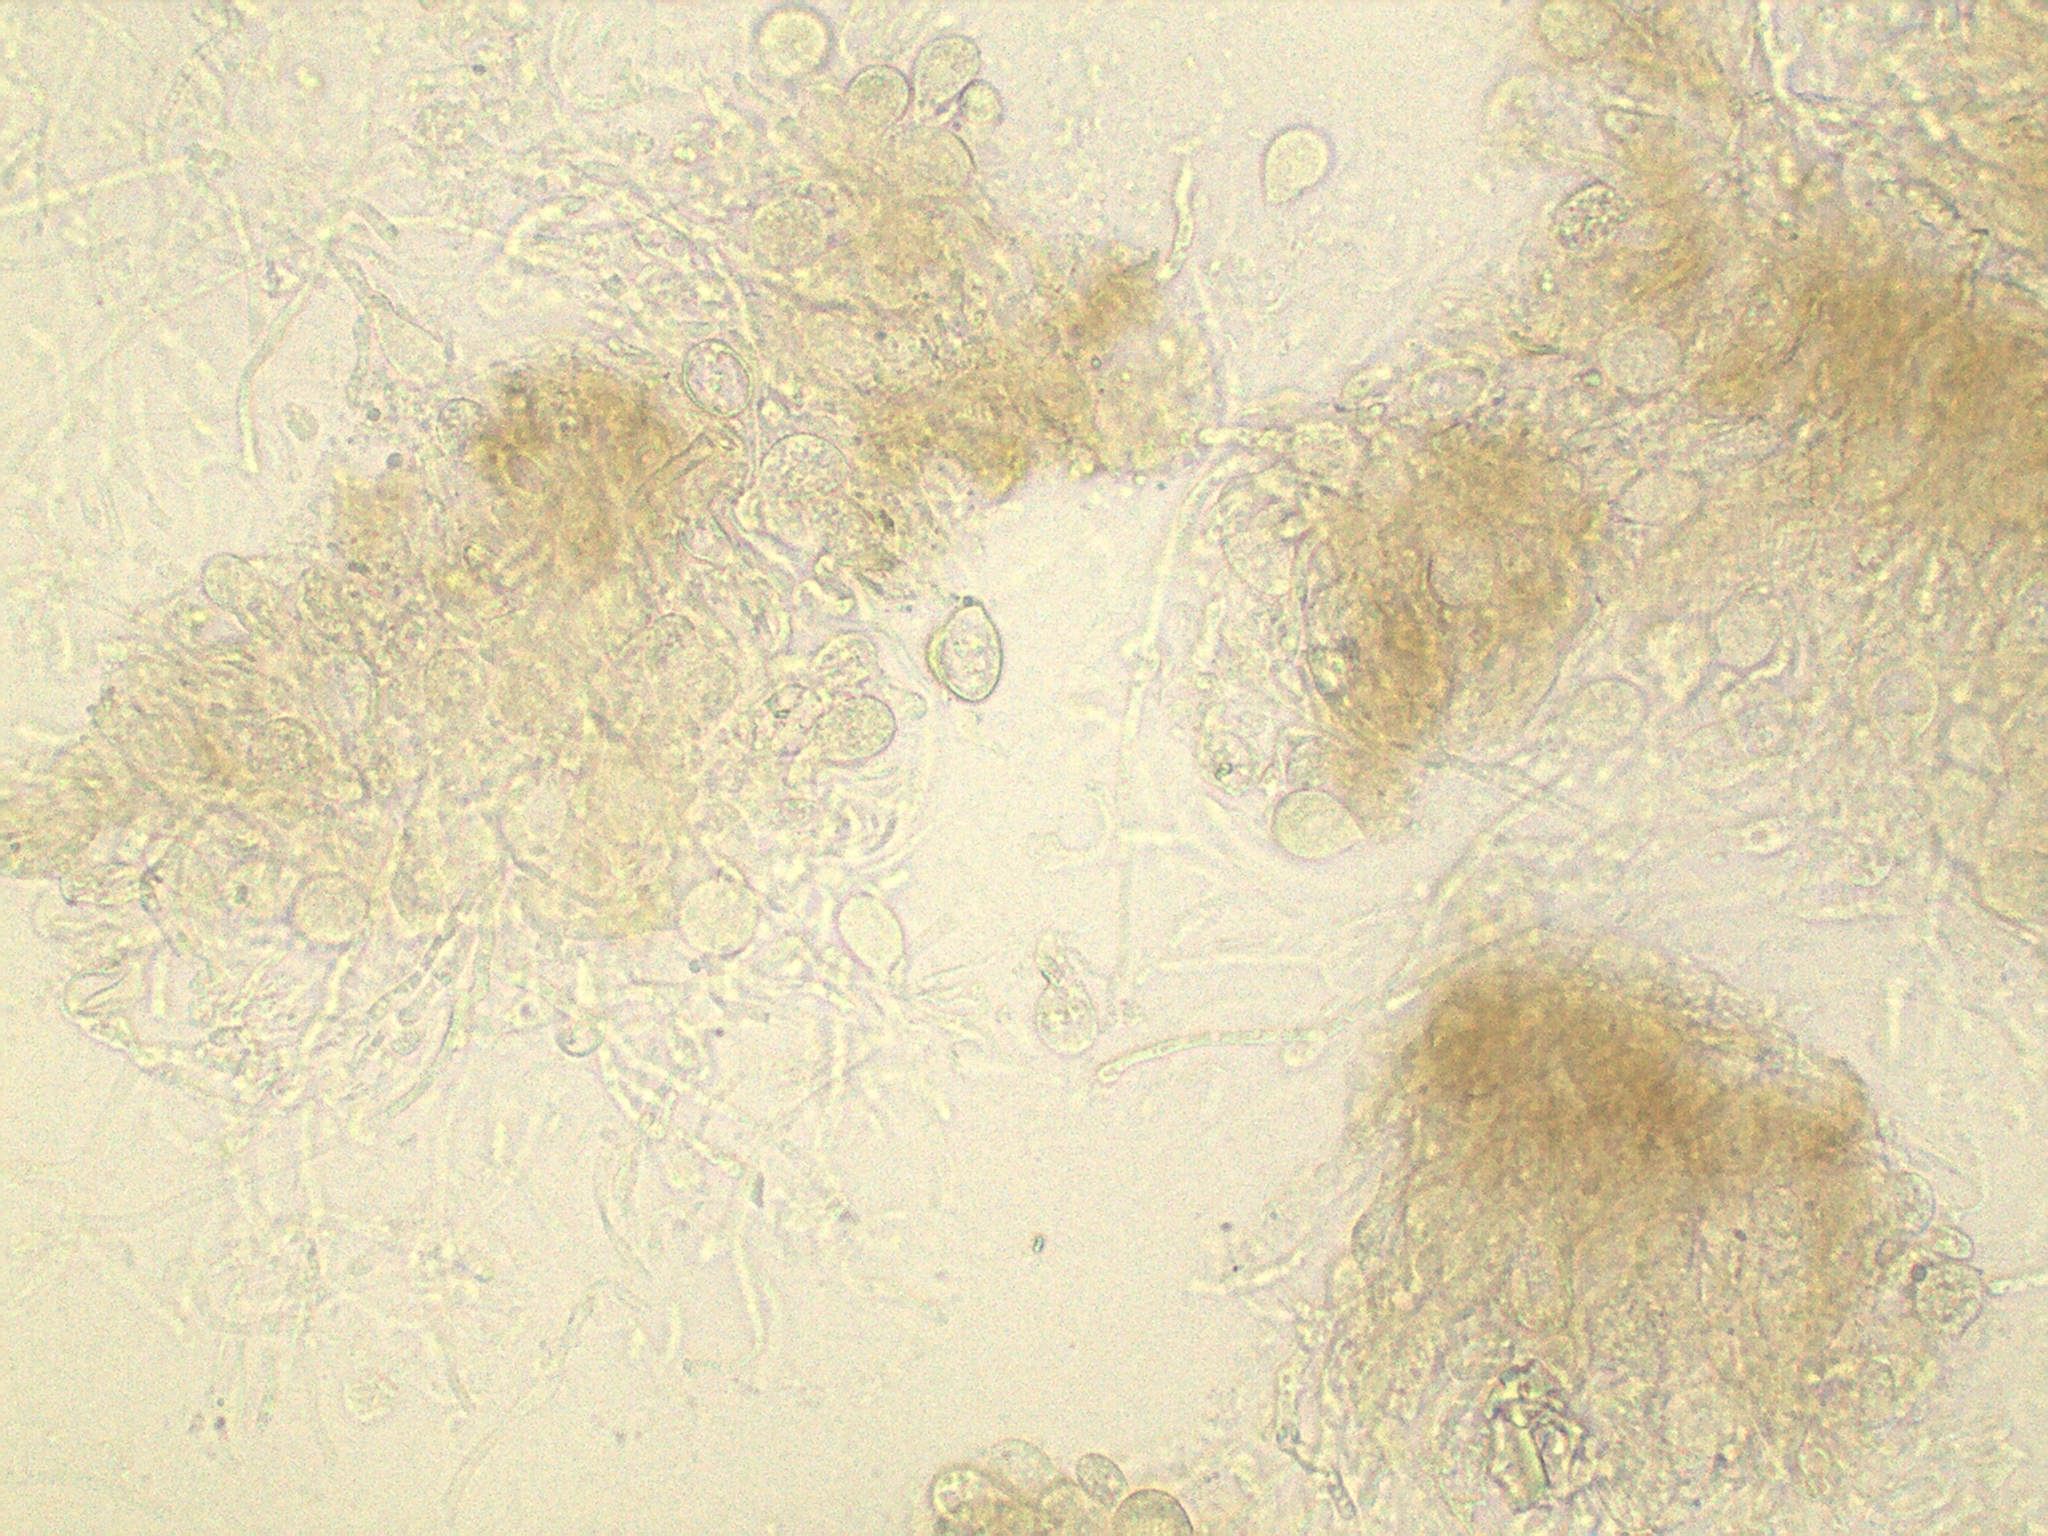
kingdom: Fungi
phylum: Basidiomycota
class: Agaricomycetes
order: Auriculariales
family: Auriculariaceae
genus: Exidia
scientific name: Exidia repanda
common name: Birch jelly
